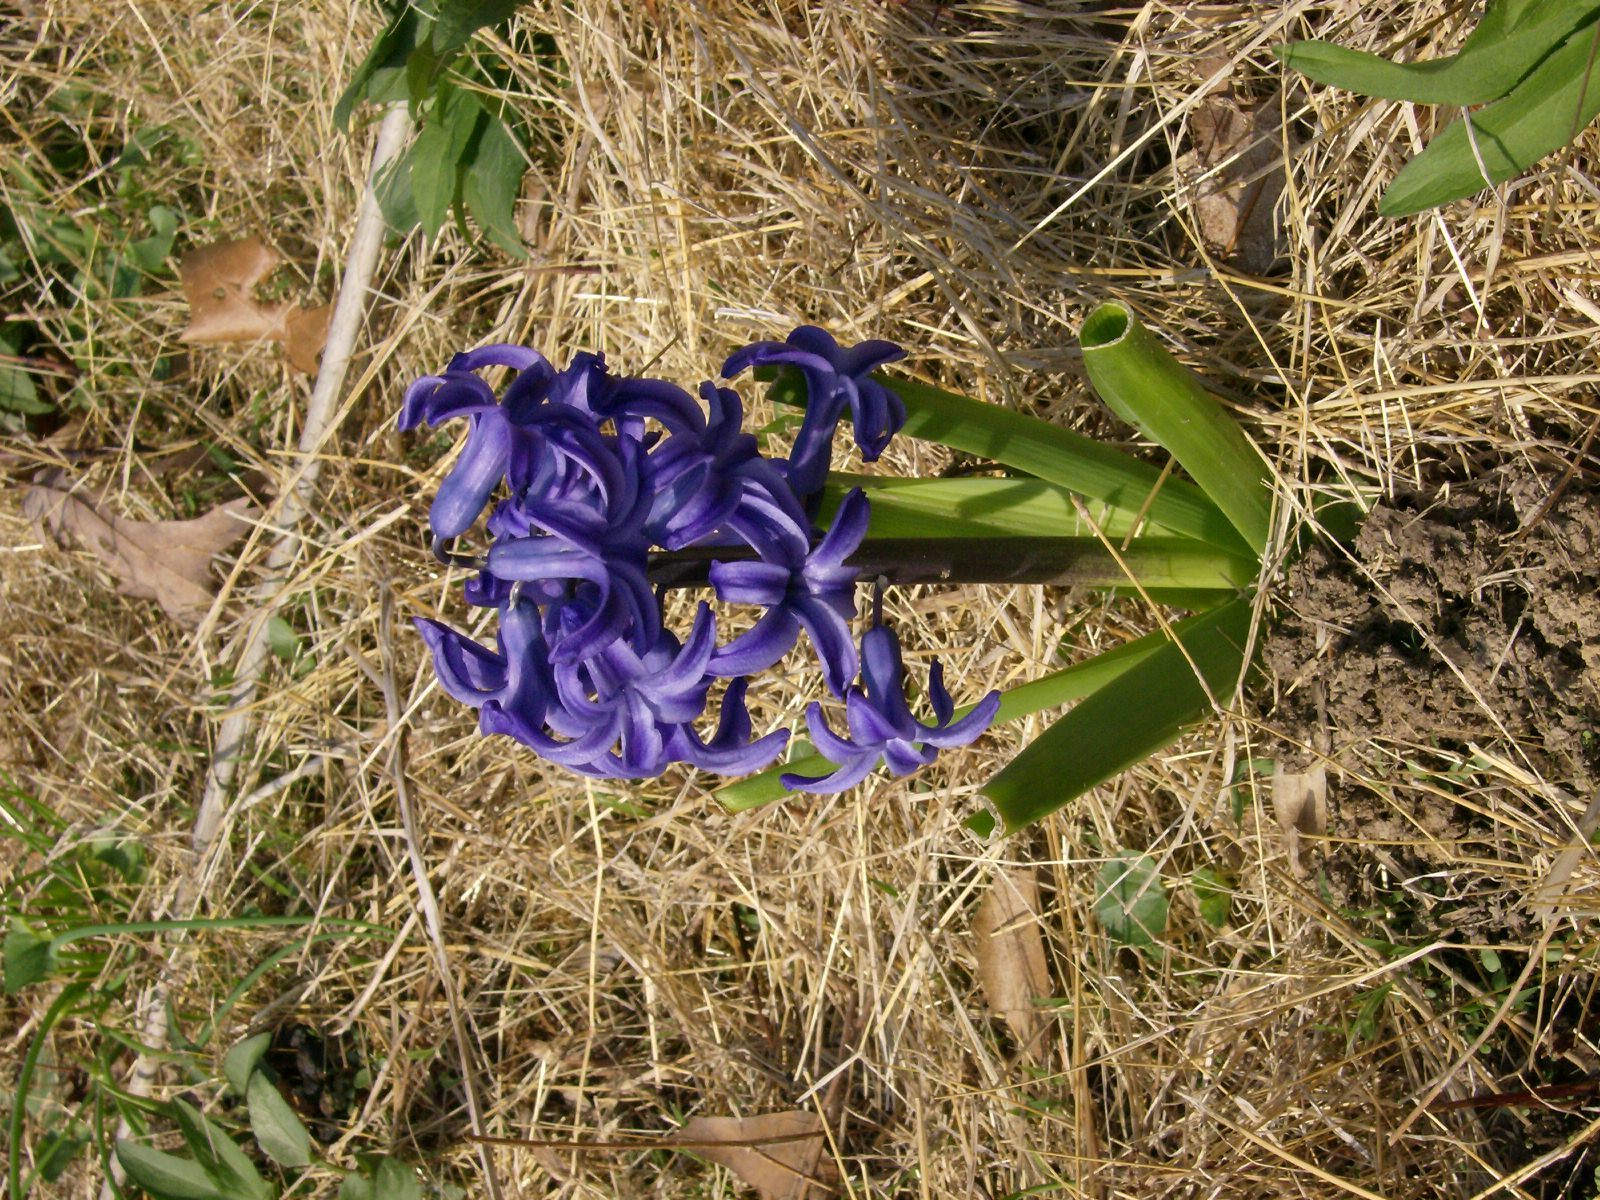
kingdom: Plantae
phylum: Tracheophyta
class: Liliopsida
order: Asparagales
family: Asparagaceae
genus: Hyacinthus
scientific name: Hyacinthus orientalis
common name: Hyacinth
